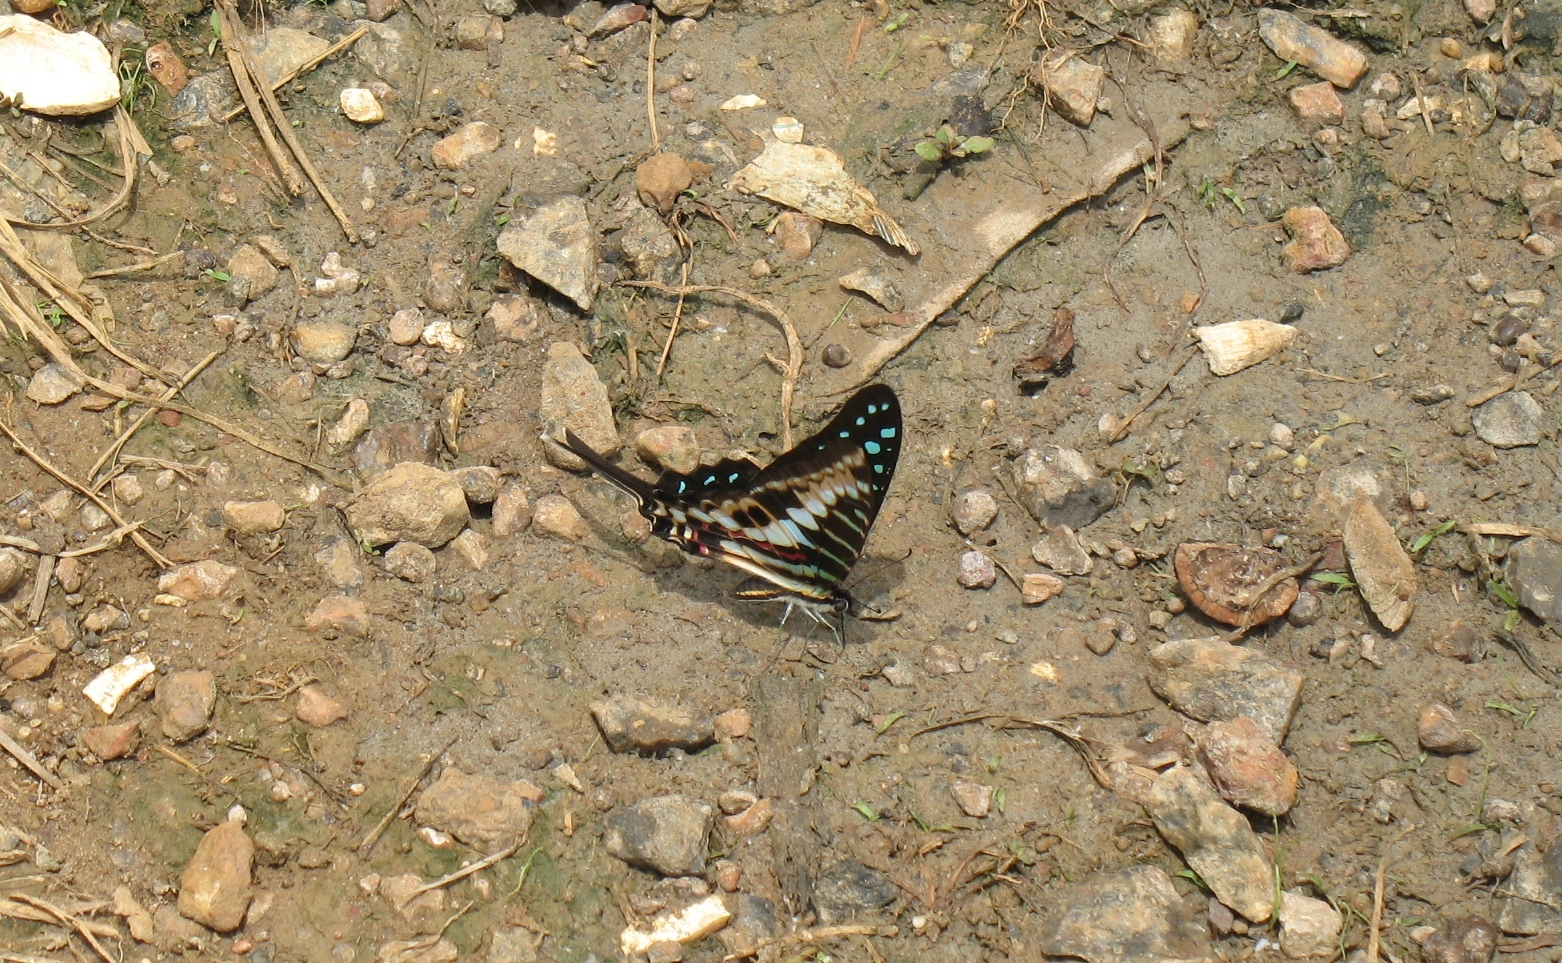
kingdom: Animalia
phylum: Arthropoda
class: Insecta
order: Lepidoptera
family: Papilionidae
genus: Graphium
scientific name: Graphium policenes
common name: Common swordtail
